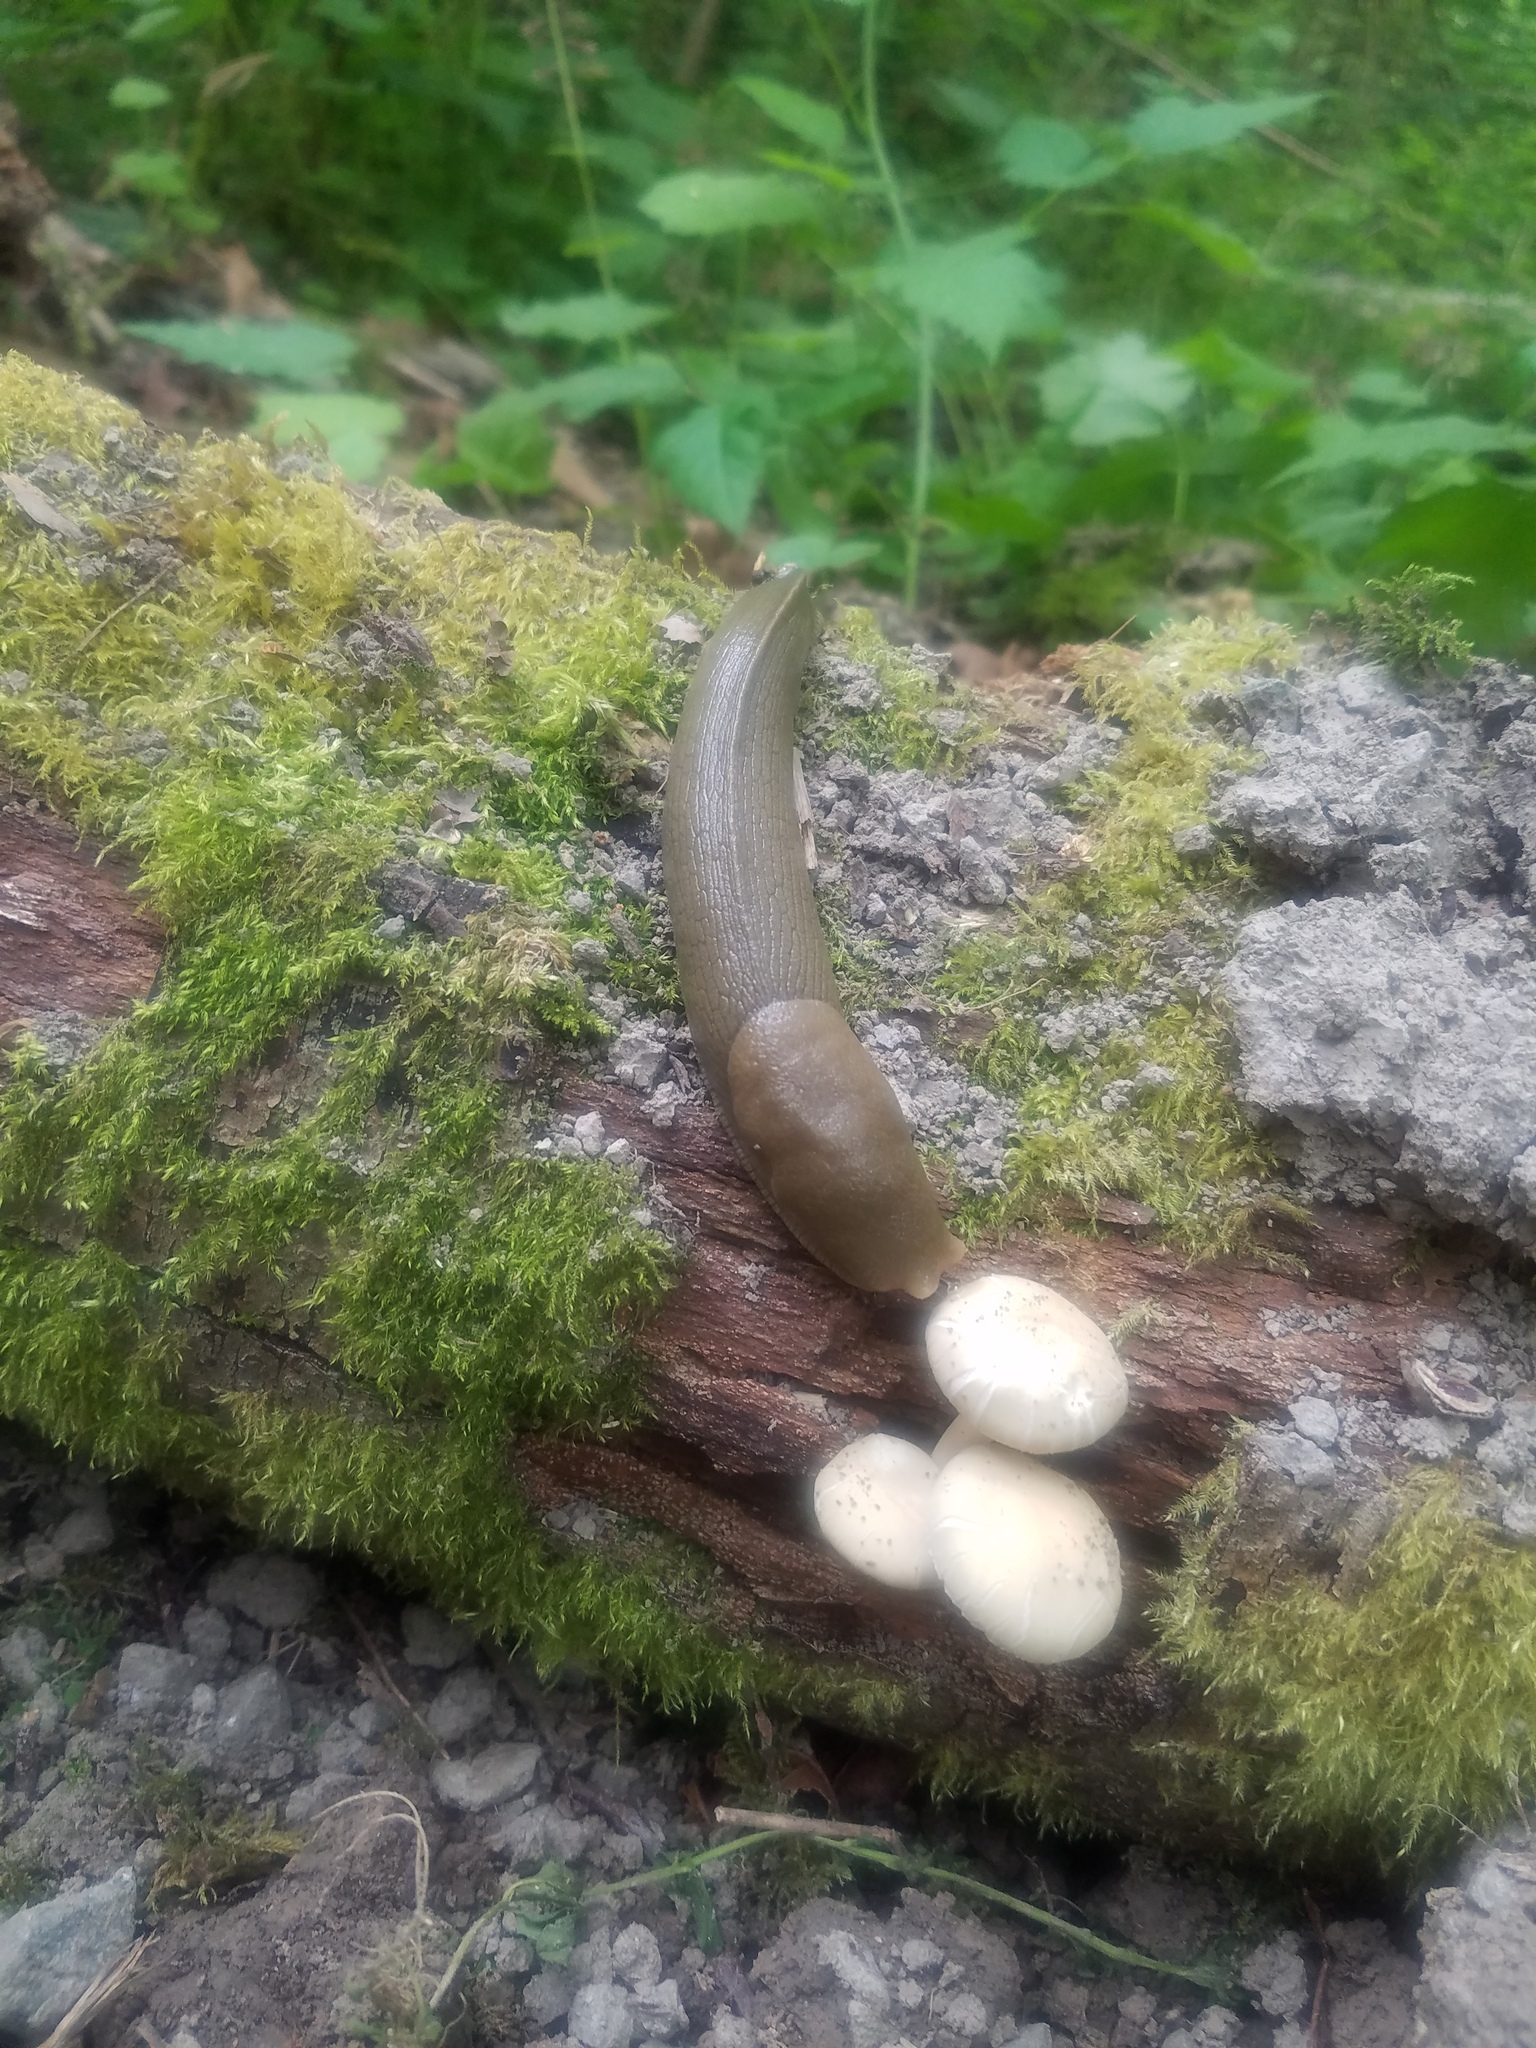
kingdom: Animalia
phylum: Mollusca
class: Gastropoda
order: Stylommatophora
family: Ariolimacidae
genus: Ariolimax
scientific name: Ariolimax columbianus
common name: Pacific banana slug
